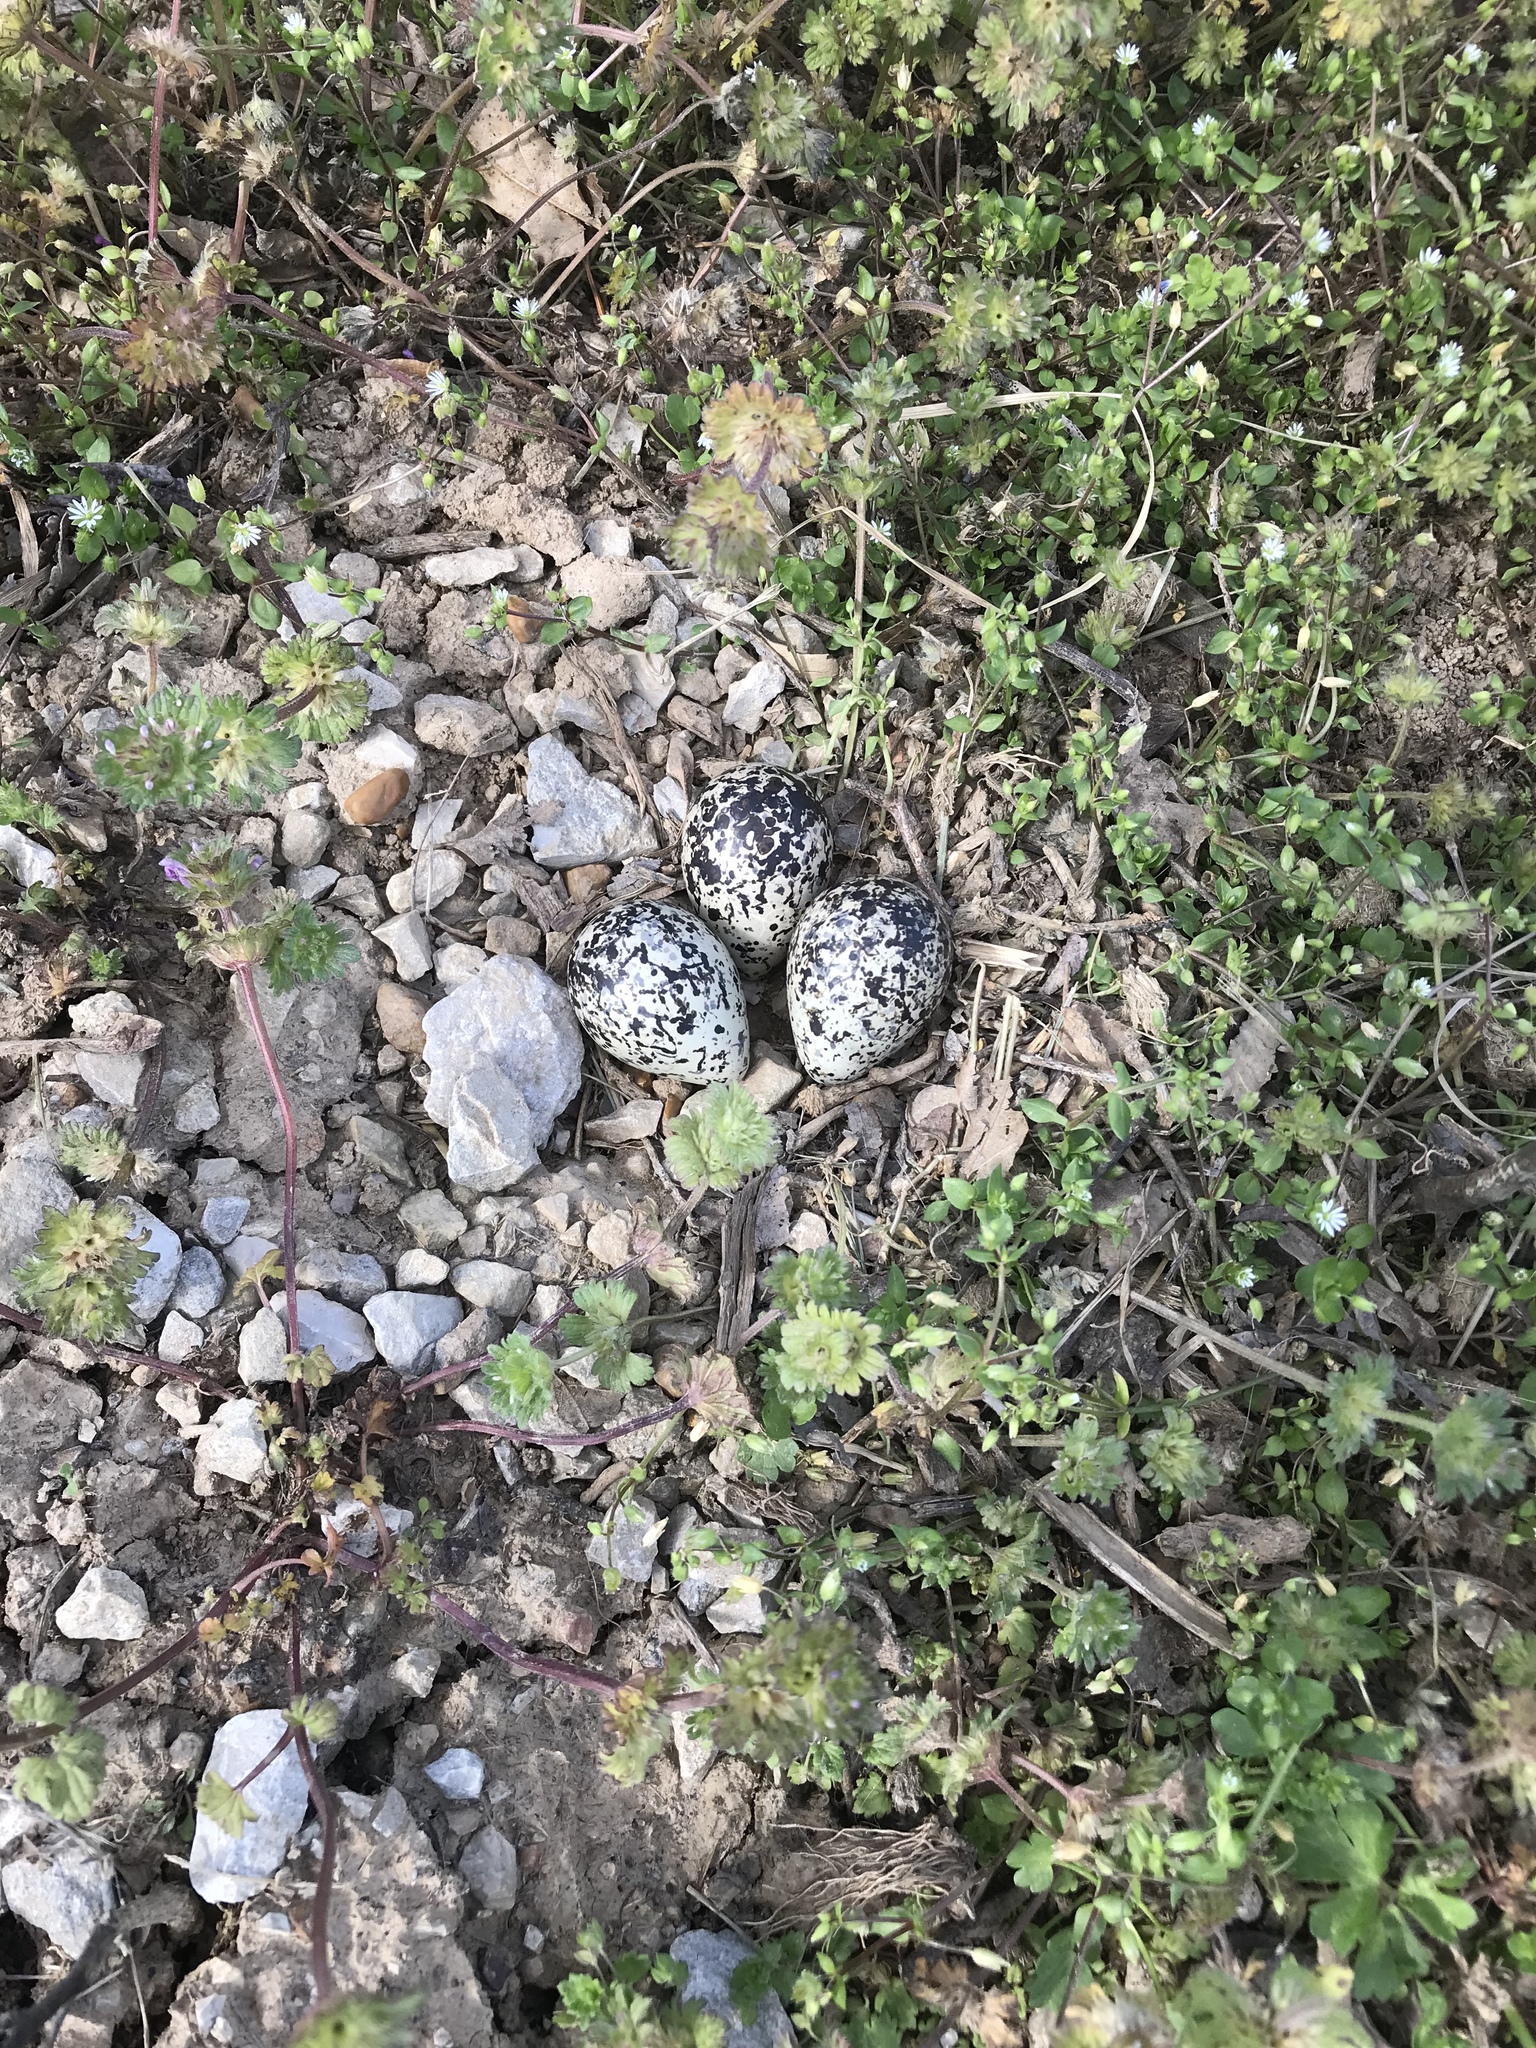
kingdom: Animalia
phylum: Chordata
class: Aves
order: Charadriiformes
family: Charadriidae
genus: Charadrius
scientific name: Charadrius vociferus
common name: Killdeer
